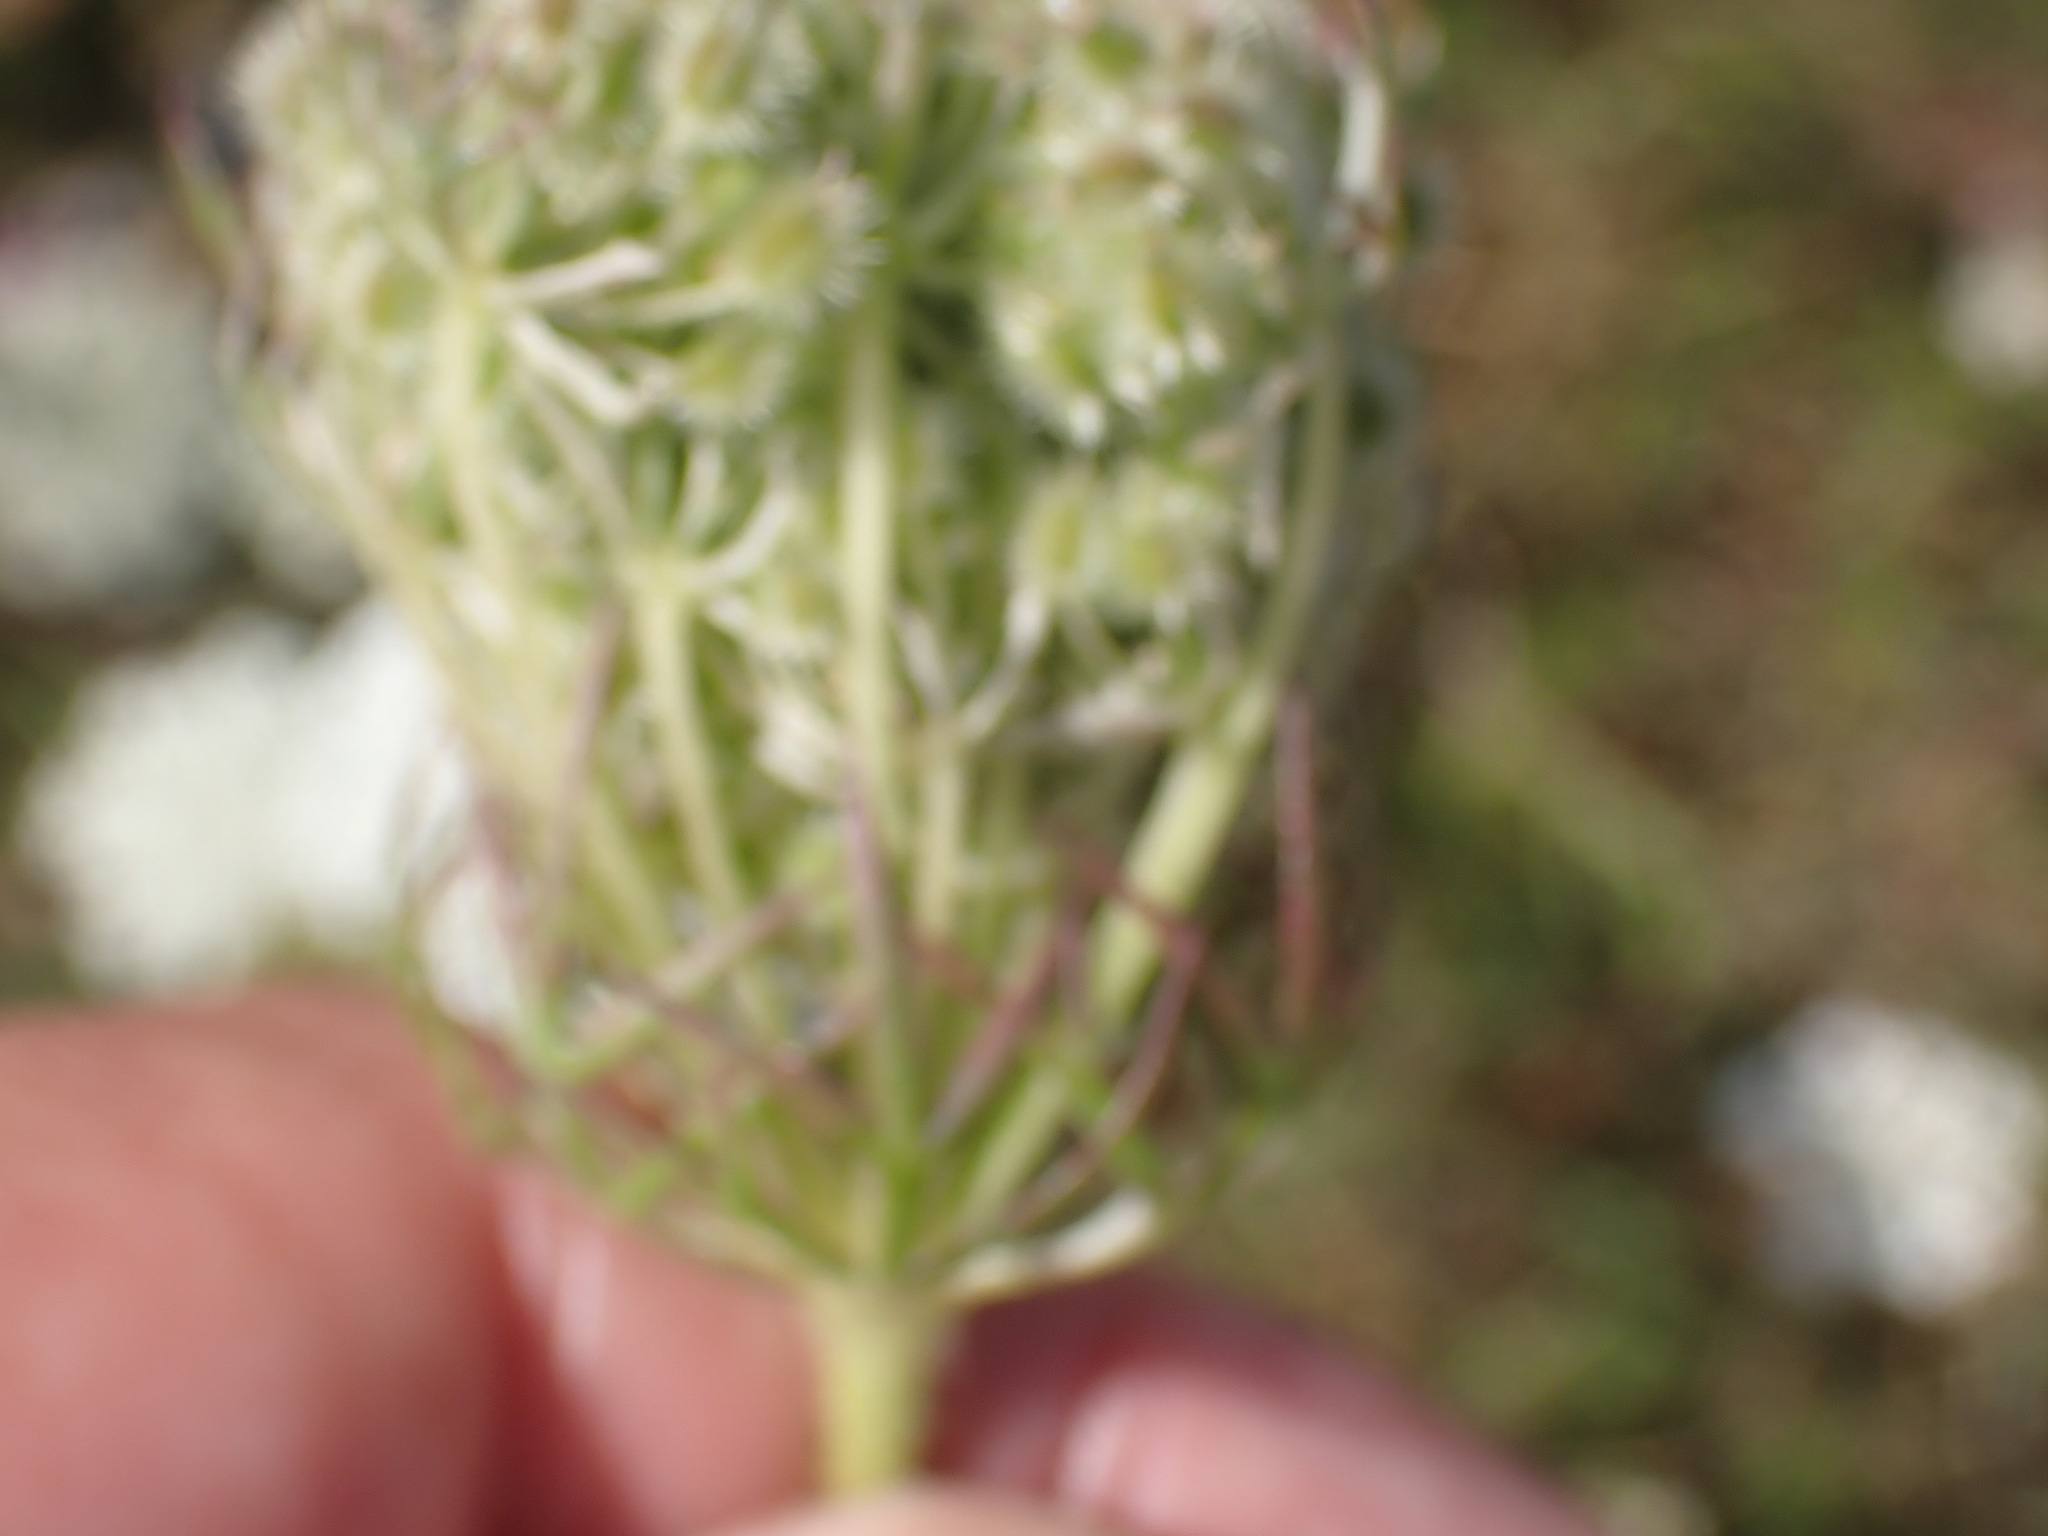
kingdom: Plantae
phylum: Tracheophyta
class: Magnoliopsida
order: Apiales
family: Apiaceae
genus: Daucus
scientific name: Daucus carota
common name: Wild carrot
